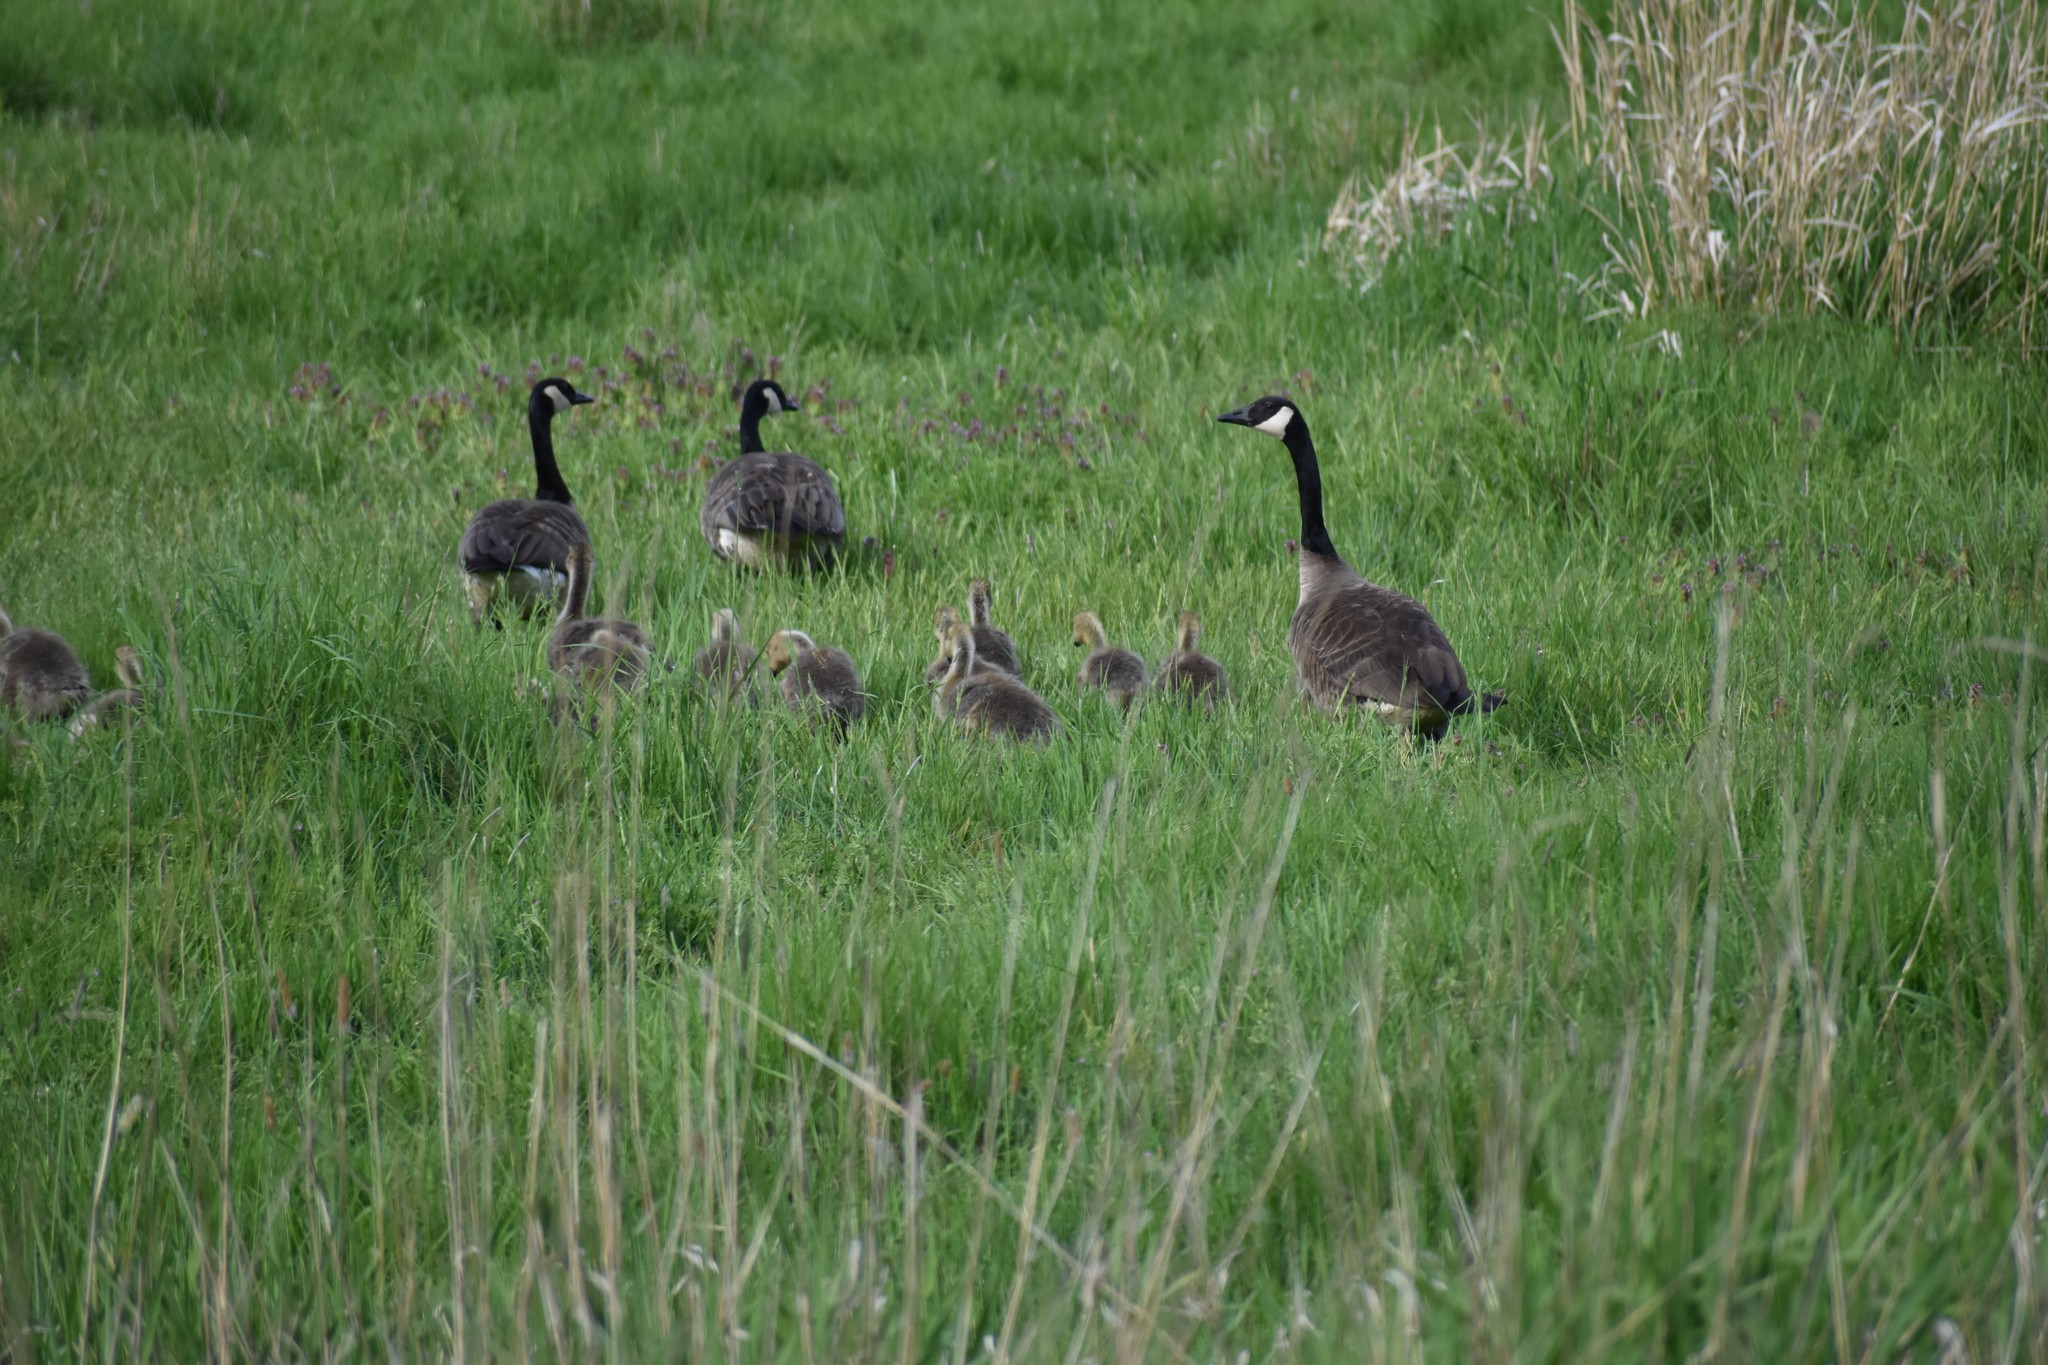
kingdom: Animalia
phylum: Chordata
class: Aves
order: Anseriformes
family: Anatidae
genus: Branta
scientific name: Branta canadensis
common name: Canada goose
